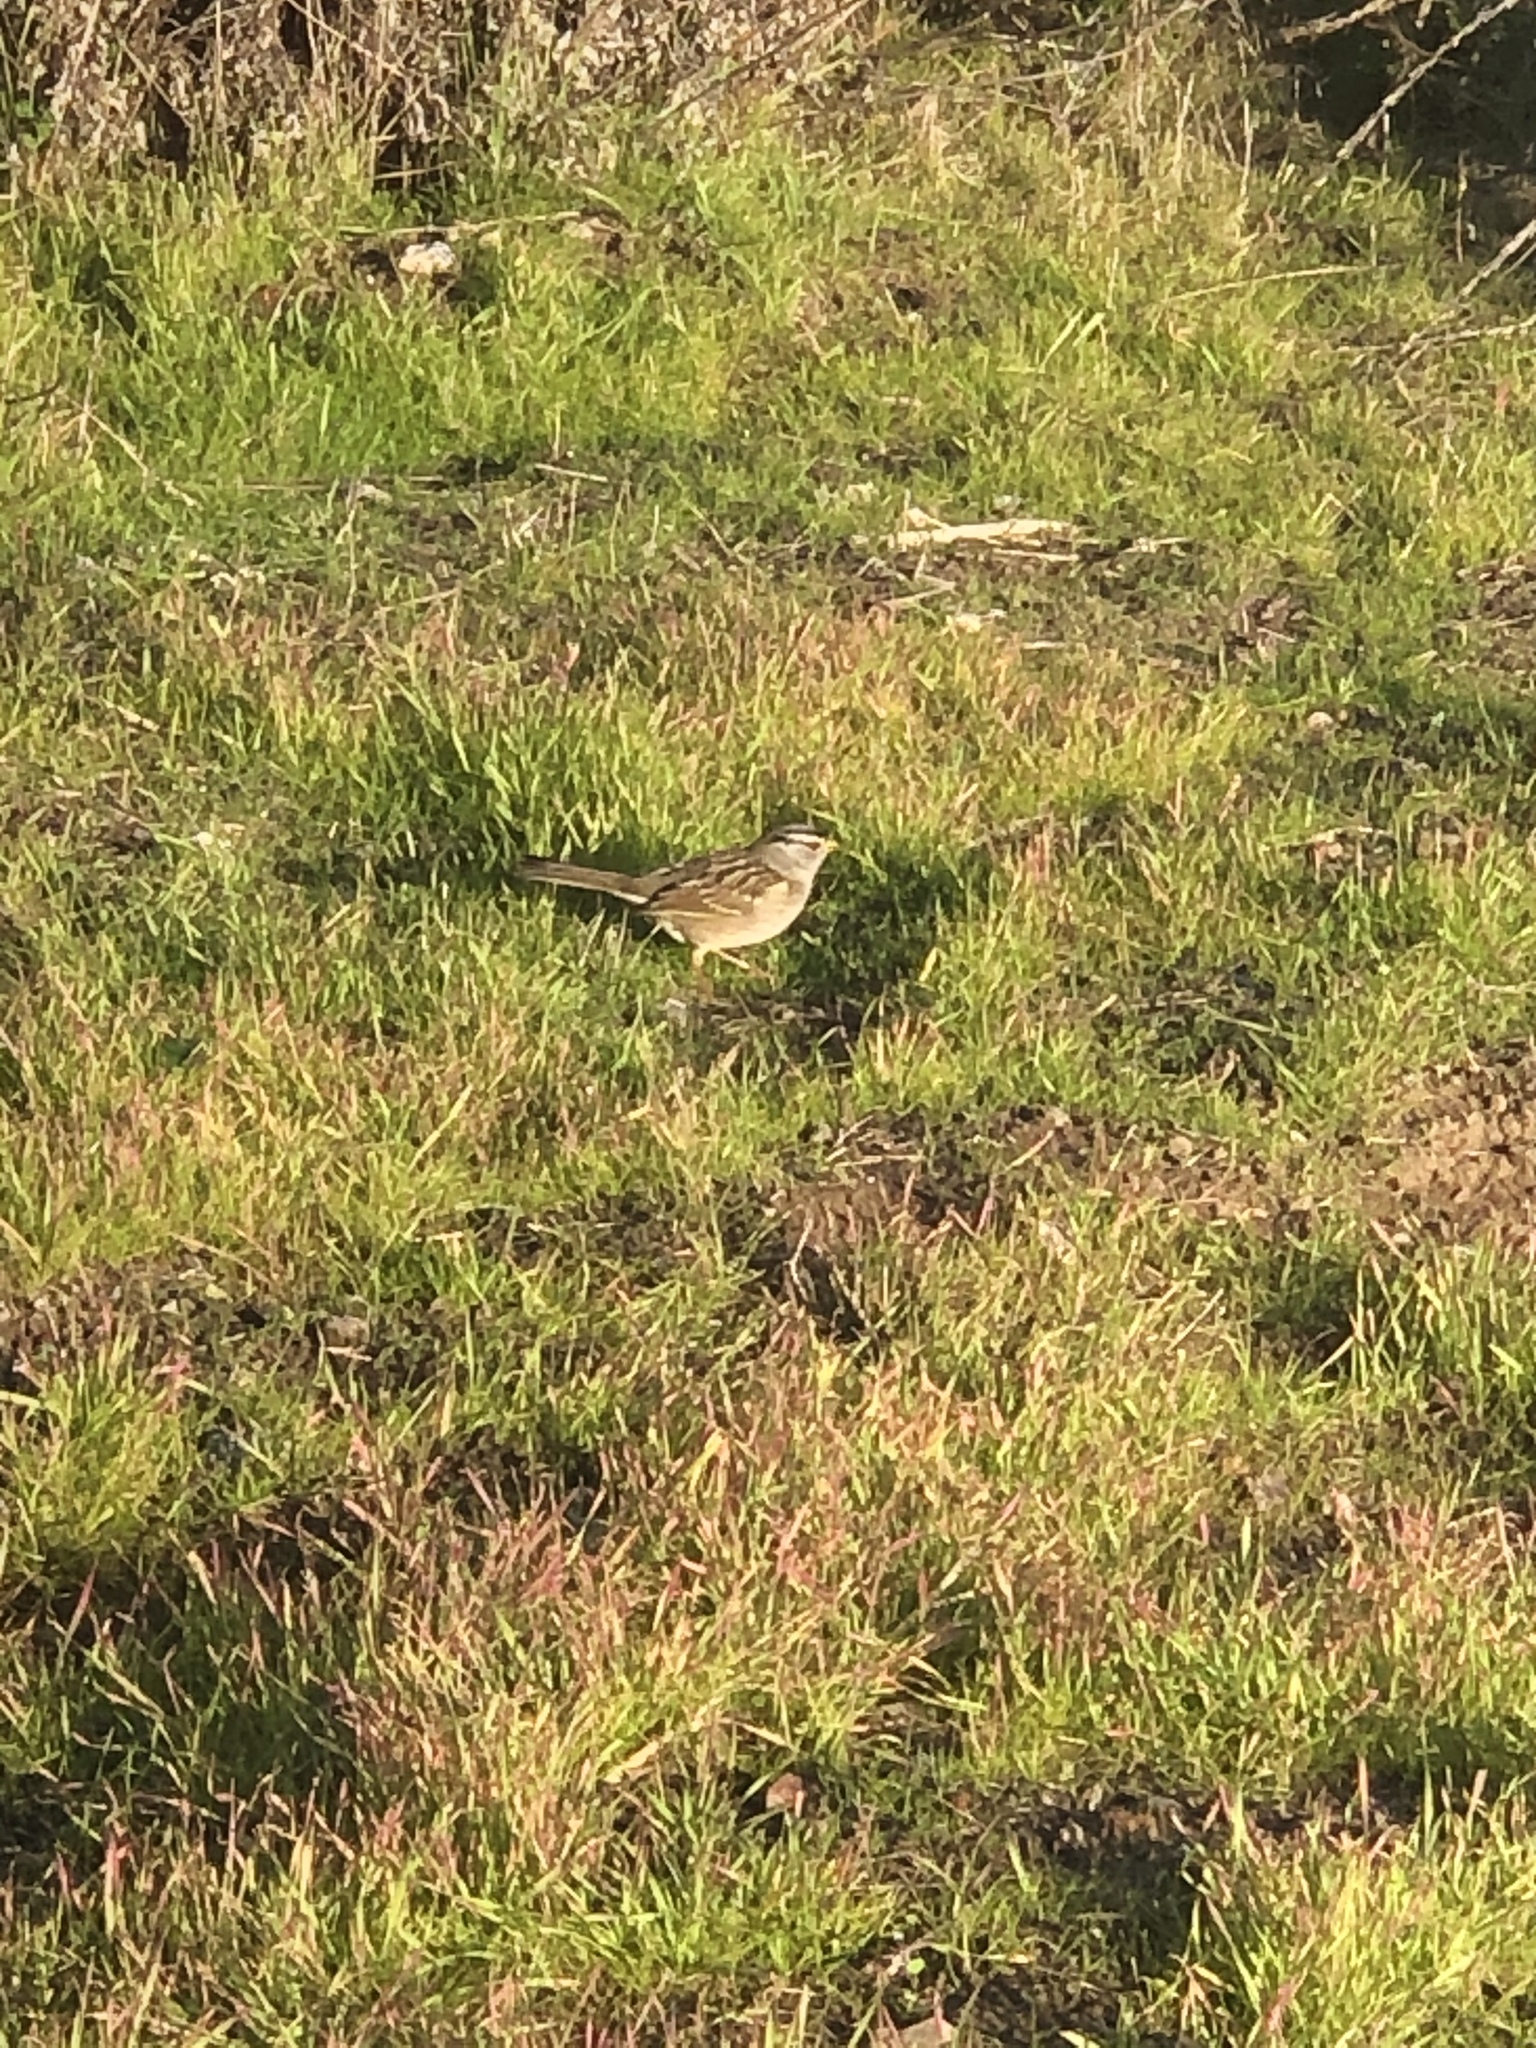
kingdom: Animalia
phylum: Chordata
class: Aves
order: Passeriformes
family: Passerellidae
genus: Zonotrichia
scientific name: Zonotrichia leucophrys
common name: White-crowned sparrow
